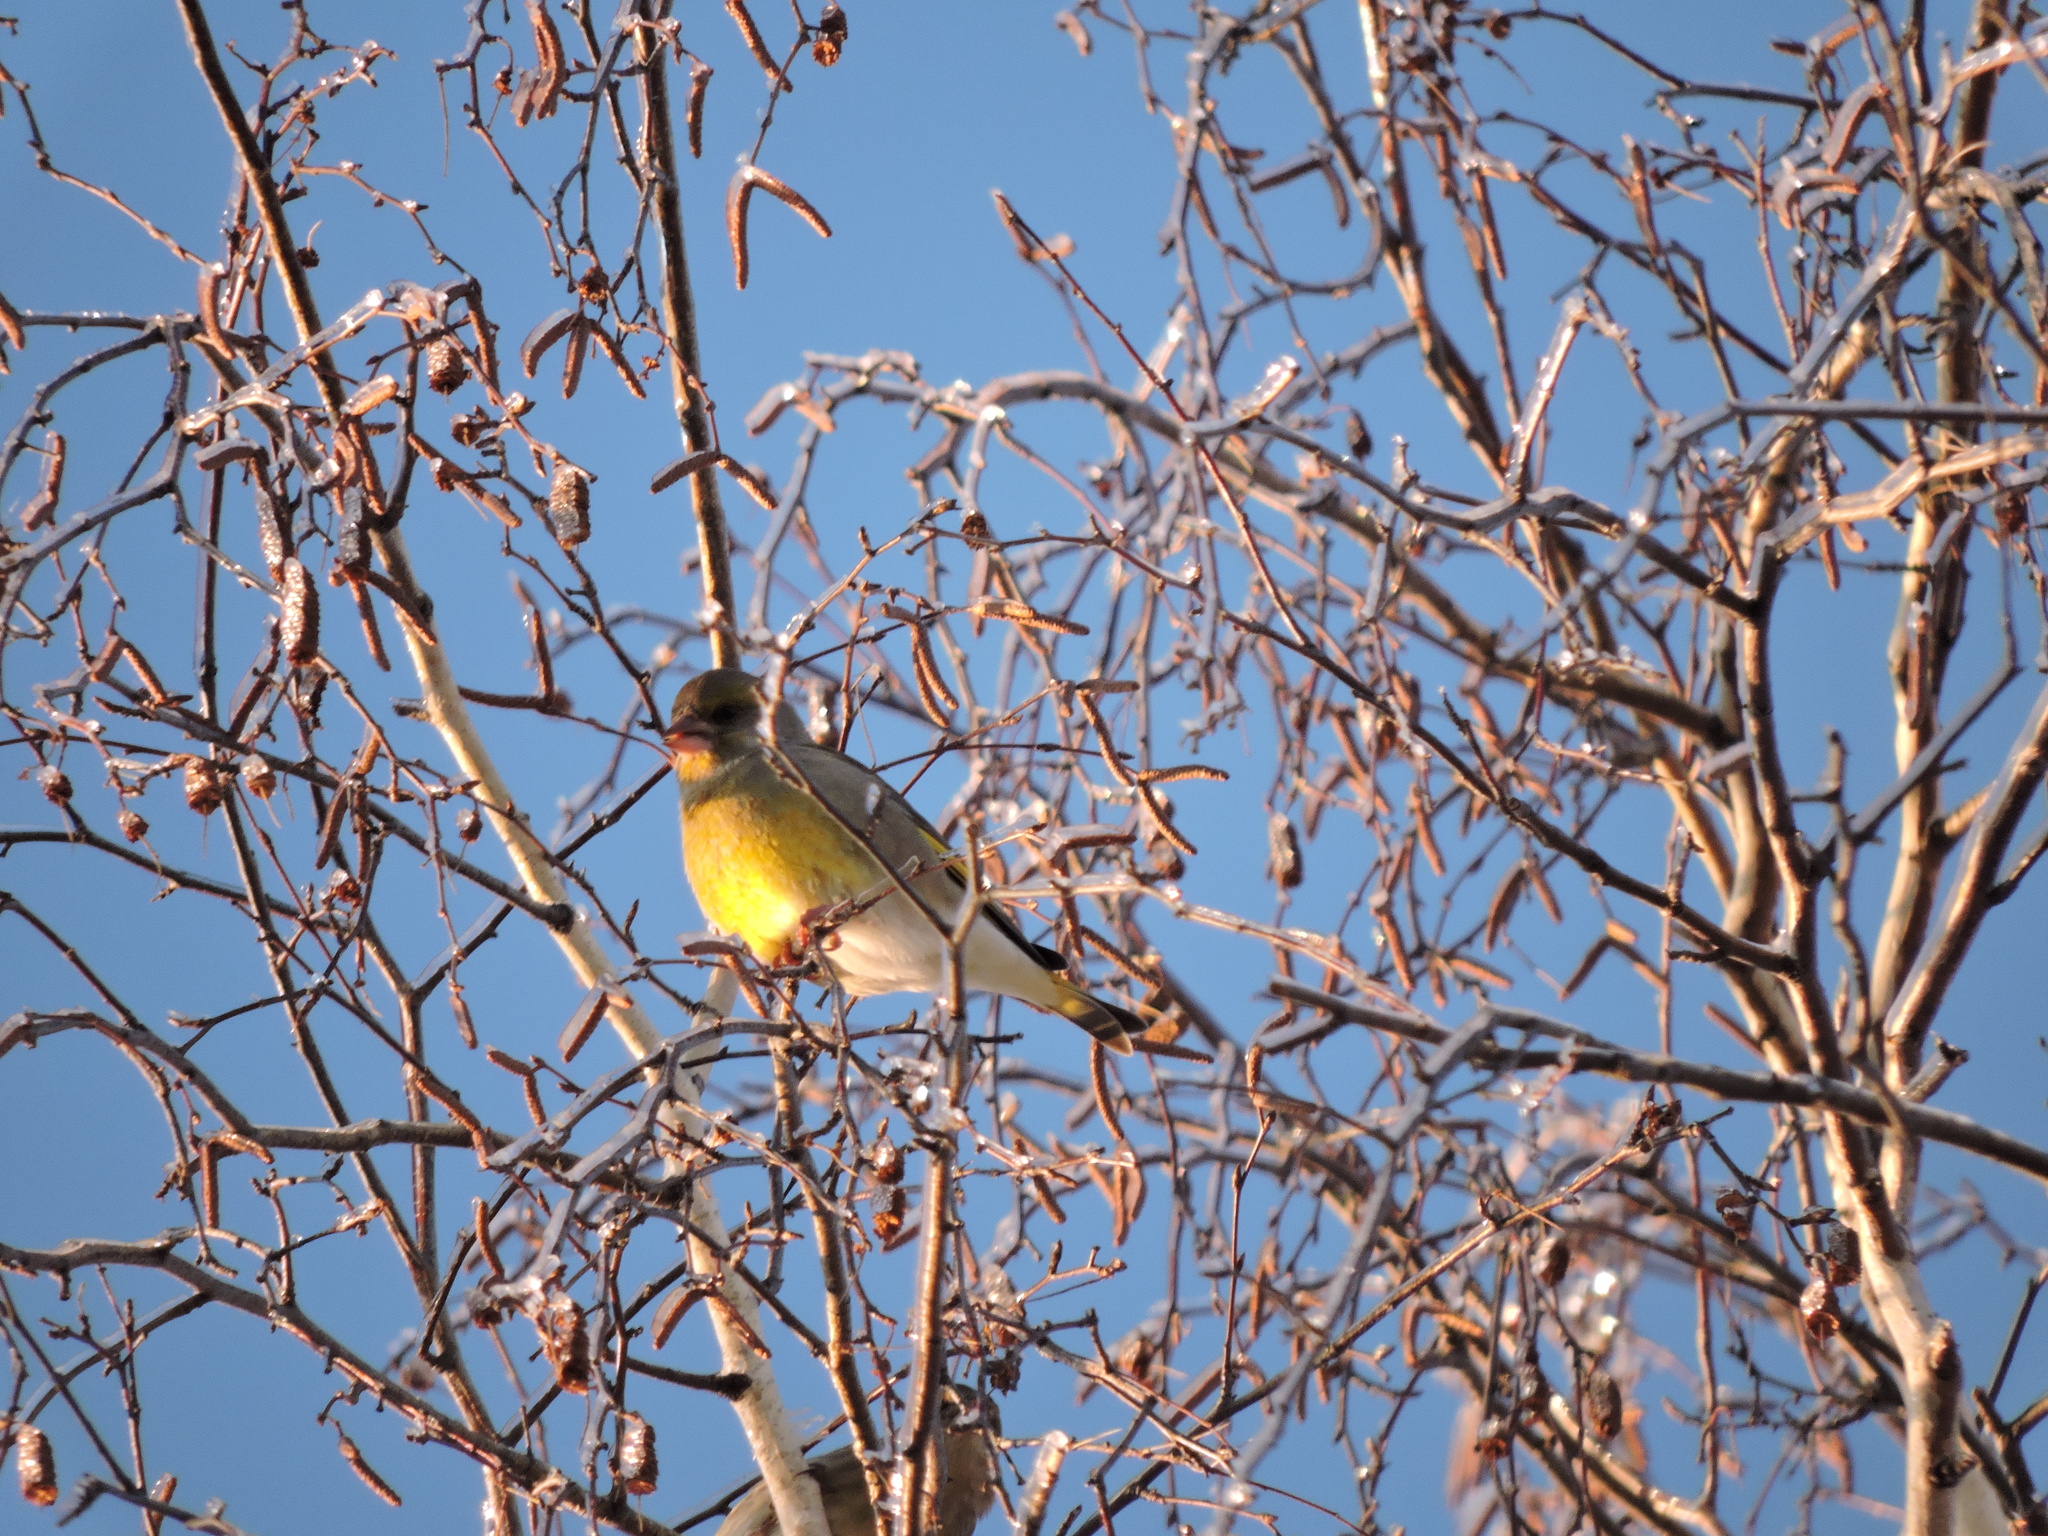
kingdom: Plantae
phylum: Tracheophyta
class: Liliopsida
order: Poales
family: Poaceae
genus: Chloris
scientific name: Chloris chloris
